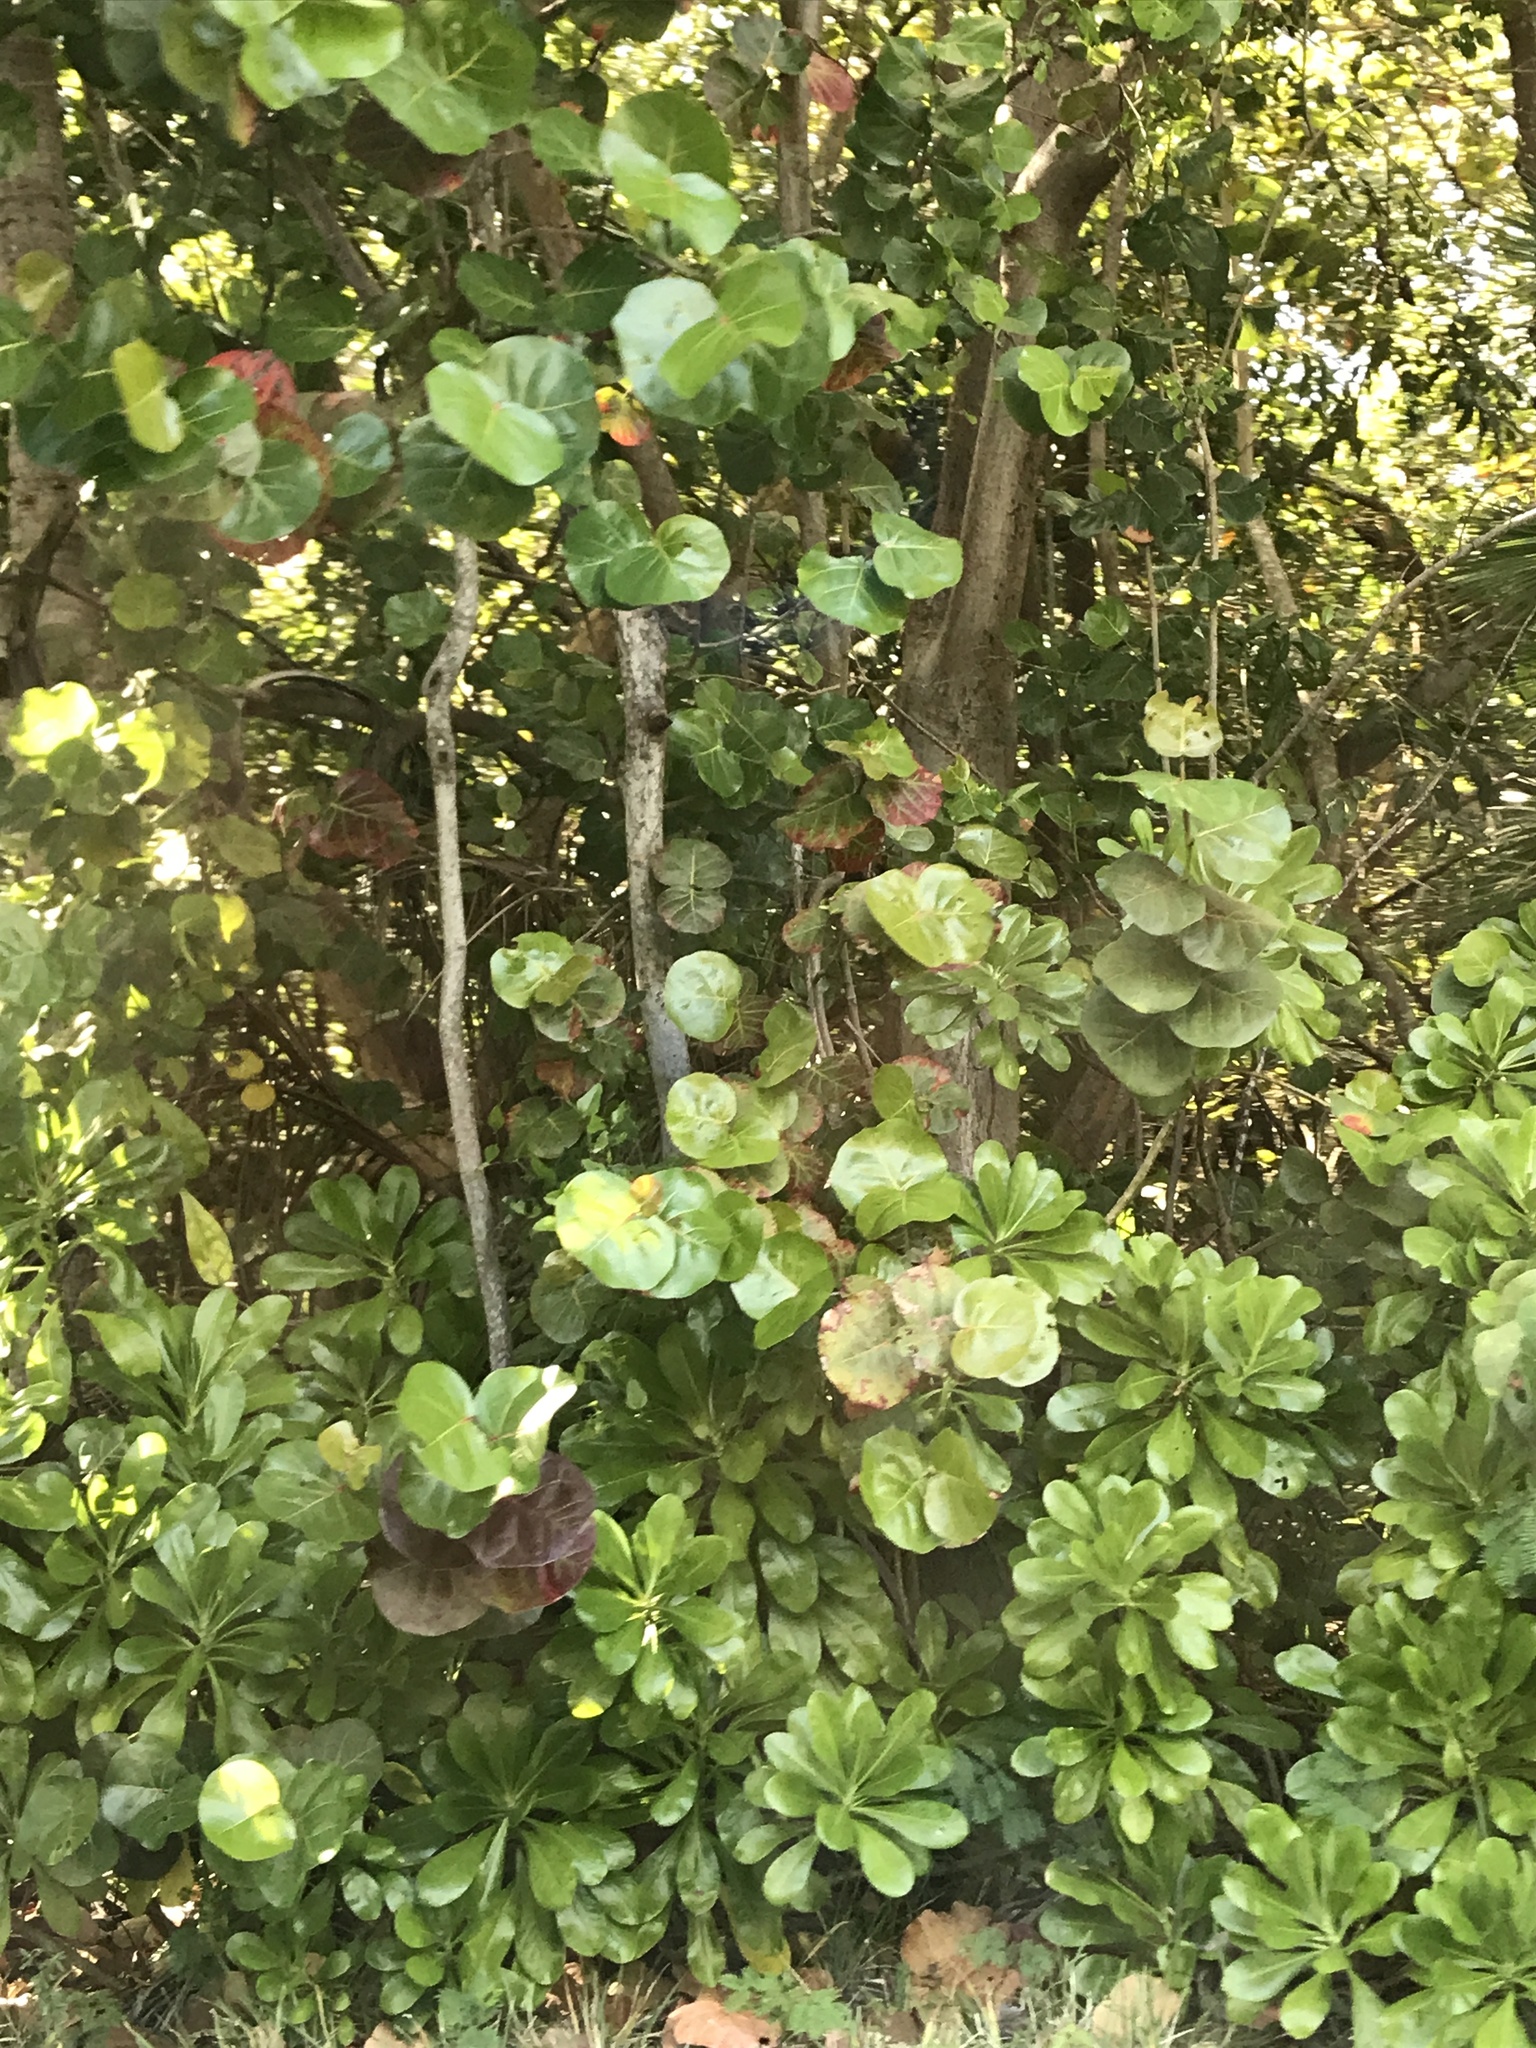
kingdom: Plantae
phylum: Tracheophyta
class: Magnoliopsida
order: Caryophyllales
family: Polygonaceae
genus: Coccoloba
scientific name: Coccoloba uvifera
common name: Seagrape
